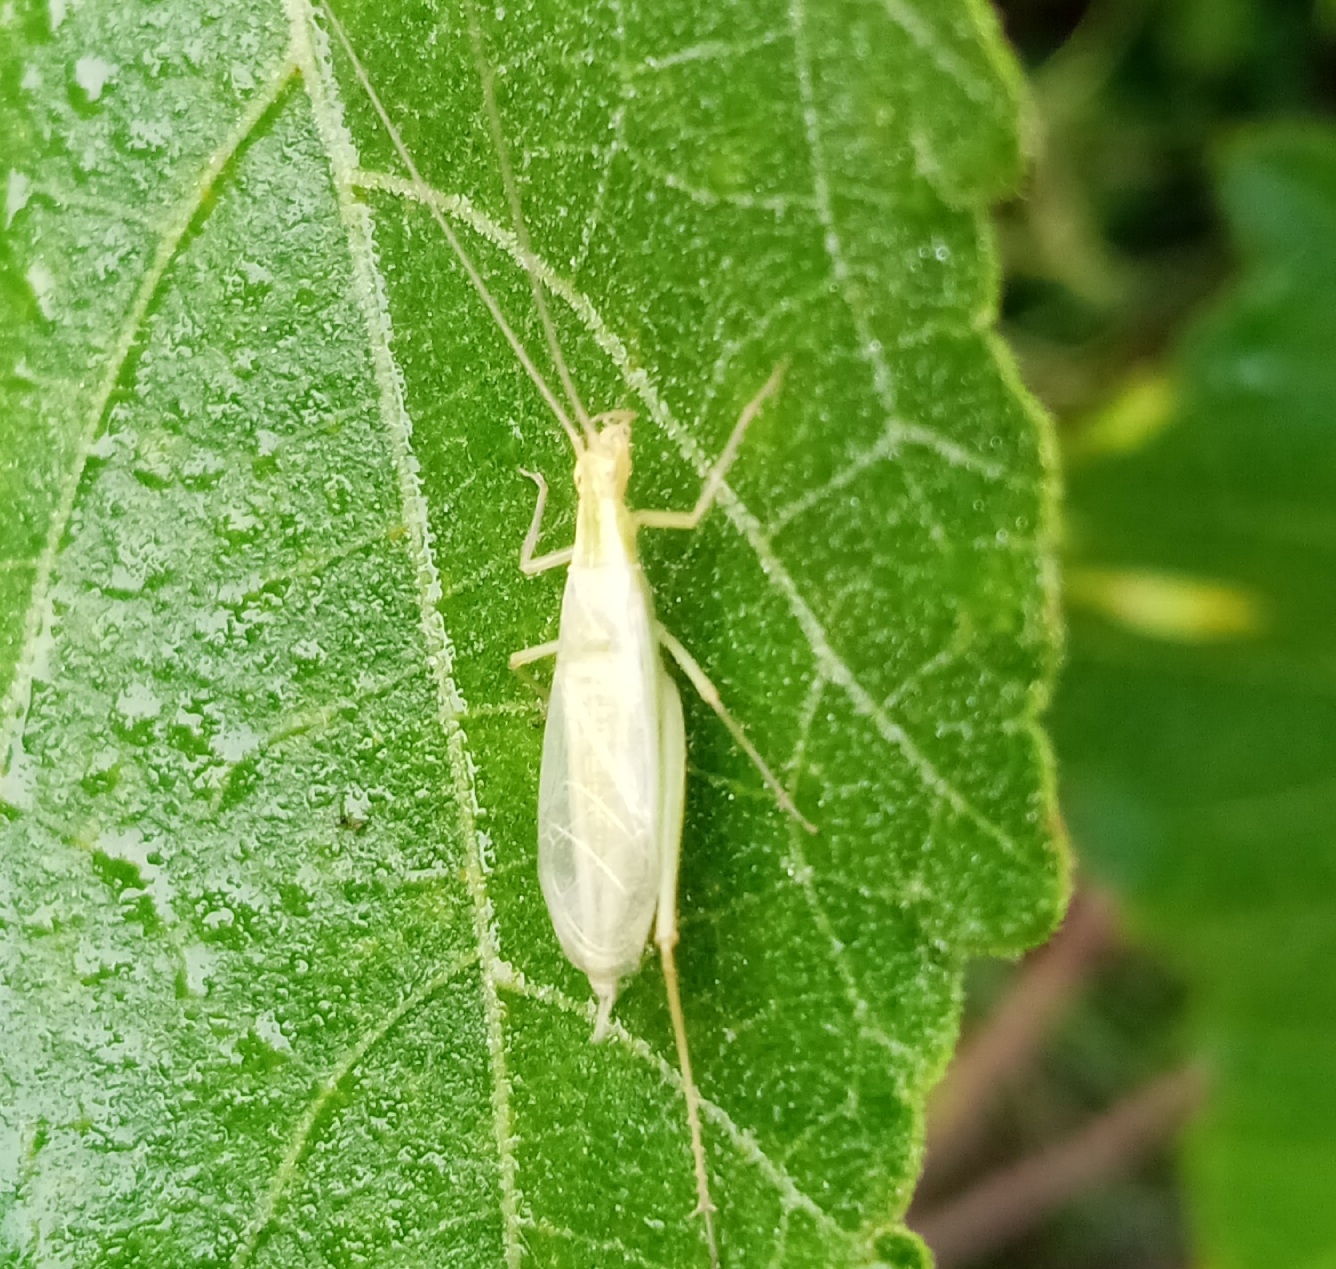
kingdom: Animalia
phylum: Arthropoda
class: Insecta
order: Orthoptera
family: Gryllidae
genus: Oecanthus
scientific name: Oecanthus quadripunctatus
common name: Four-spotted tree cricket
